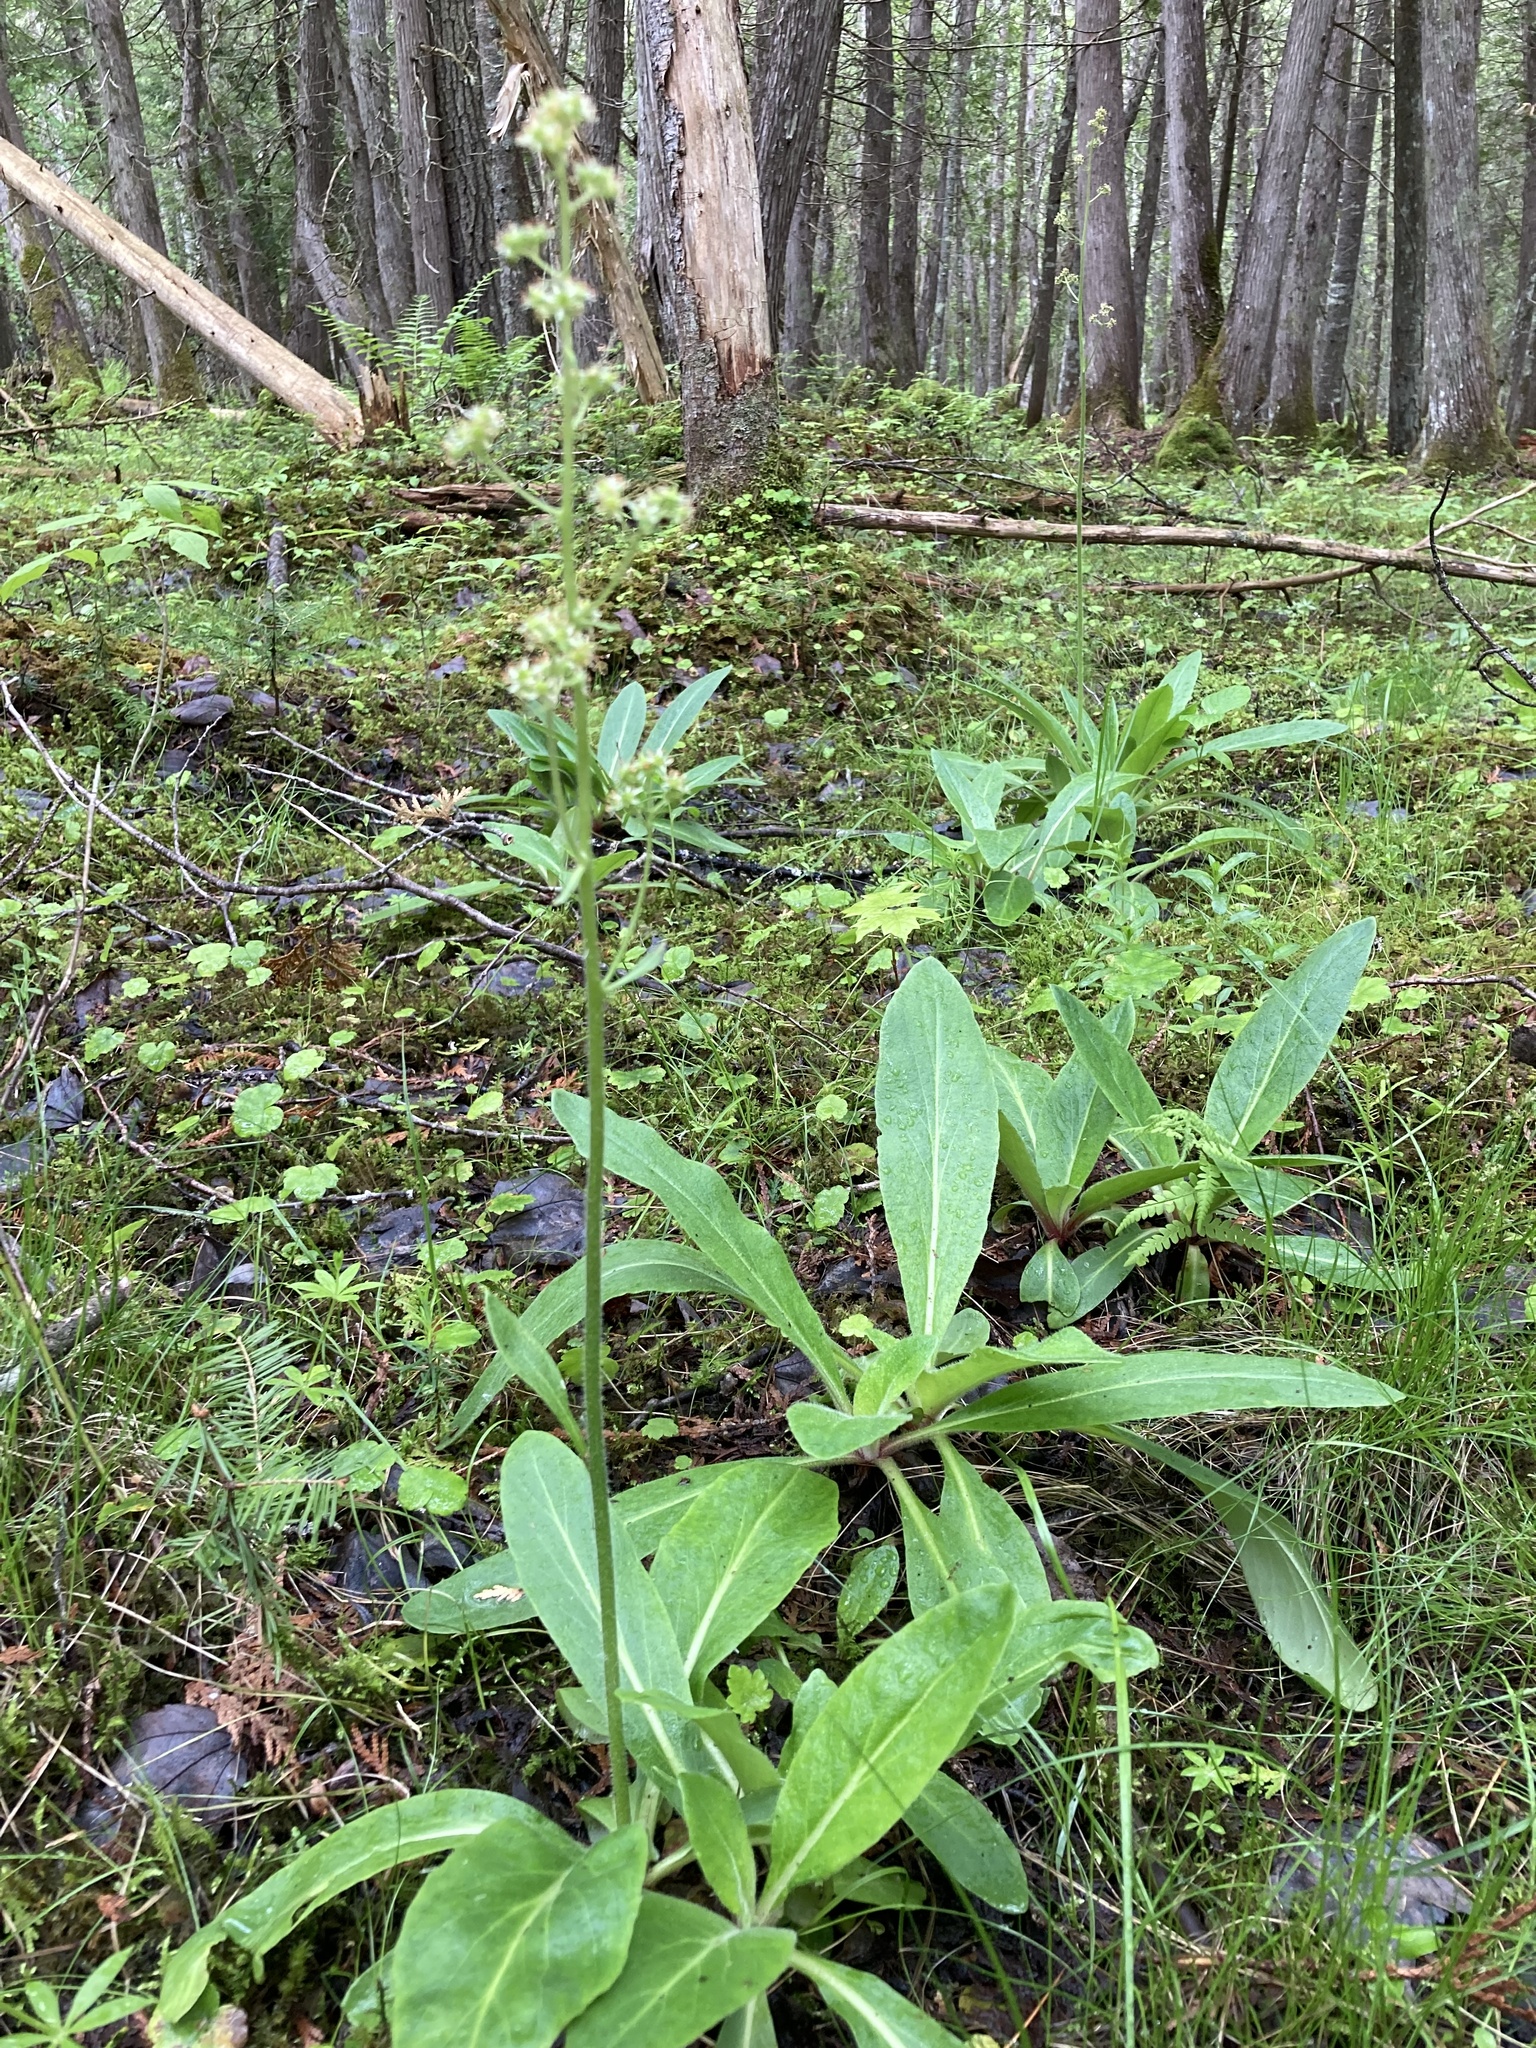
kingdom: Plantae
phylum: Tracheophyta
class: Magnoliopsida
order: Saxifragales
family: Saxifragaceae
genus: Micranthes
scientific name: Micranthes pensylvanica
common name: Marsh saxifrage
